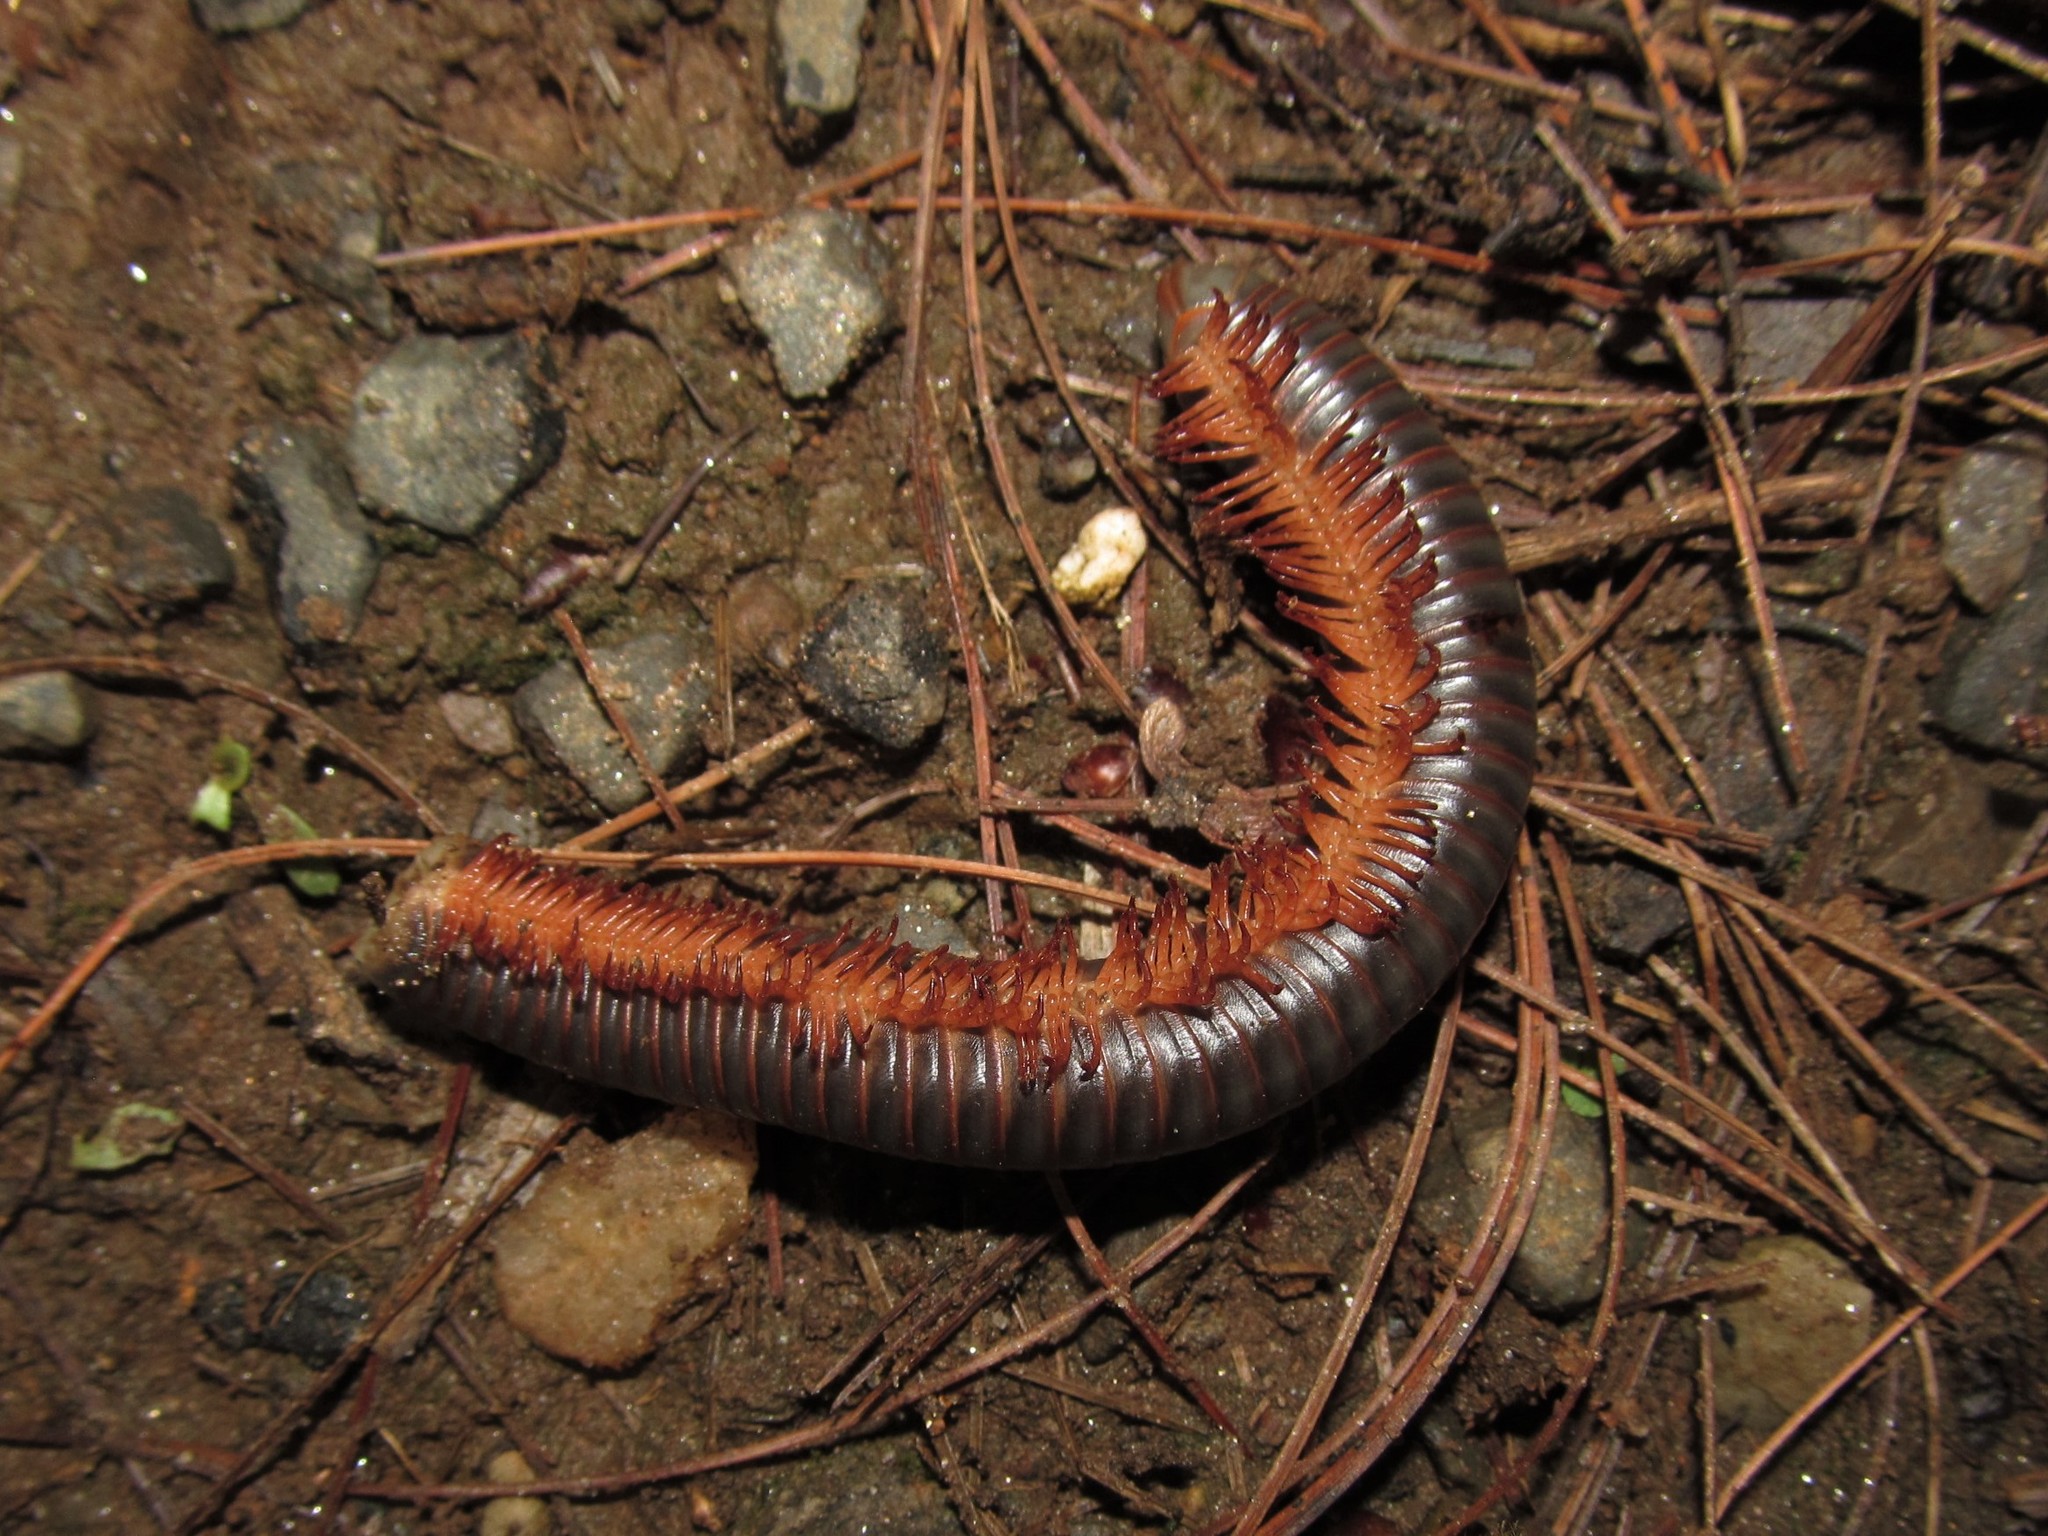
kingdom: Animalia
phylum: Arthropoda
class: Diplopoda
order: Spirobolida
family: Spirobolidae
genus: Narceus
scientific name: Narceus
